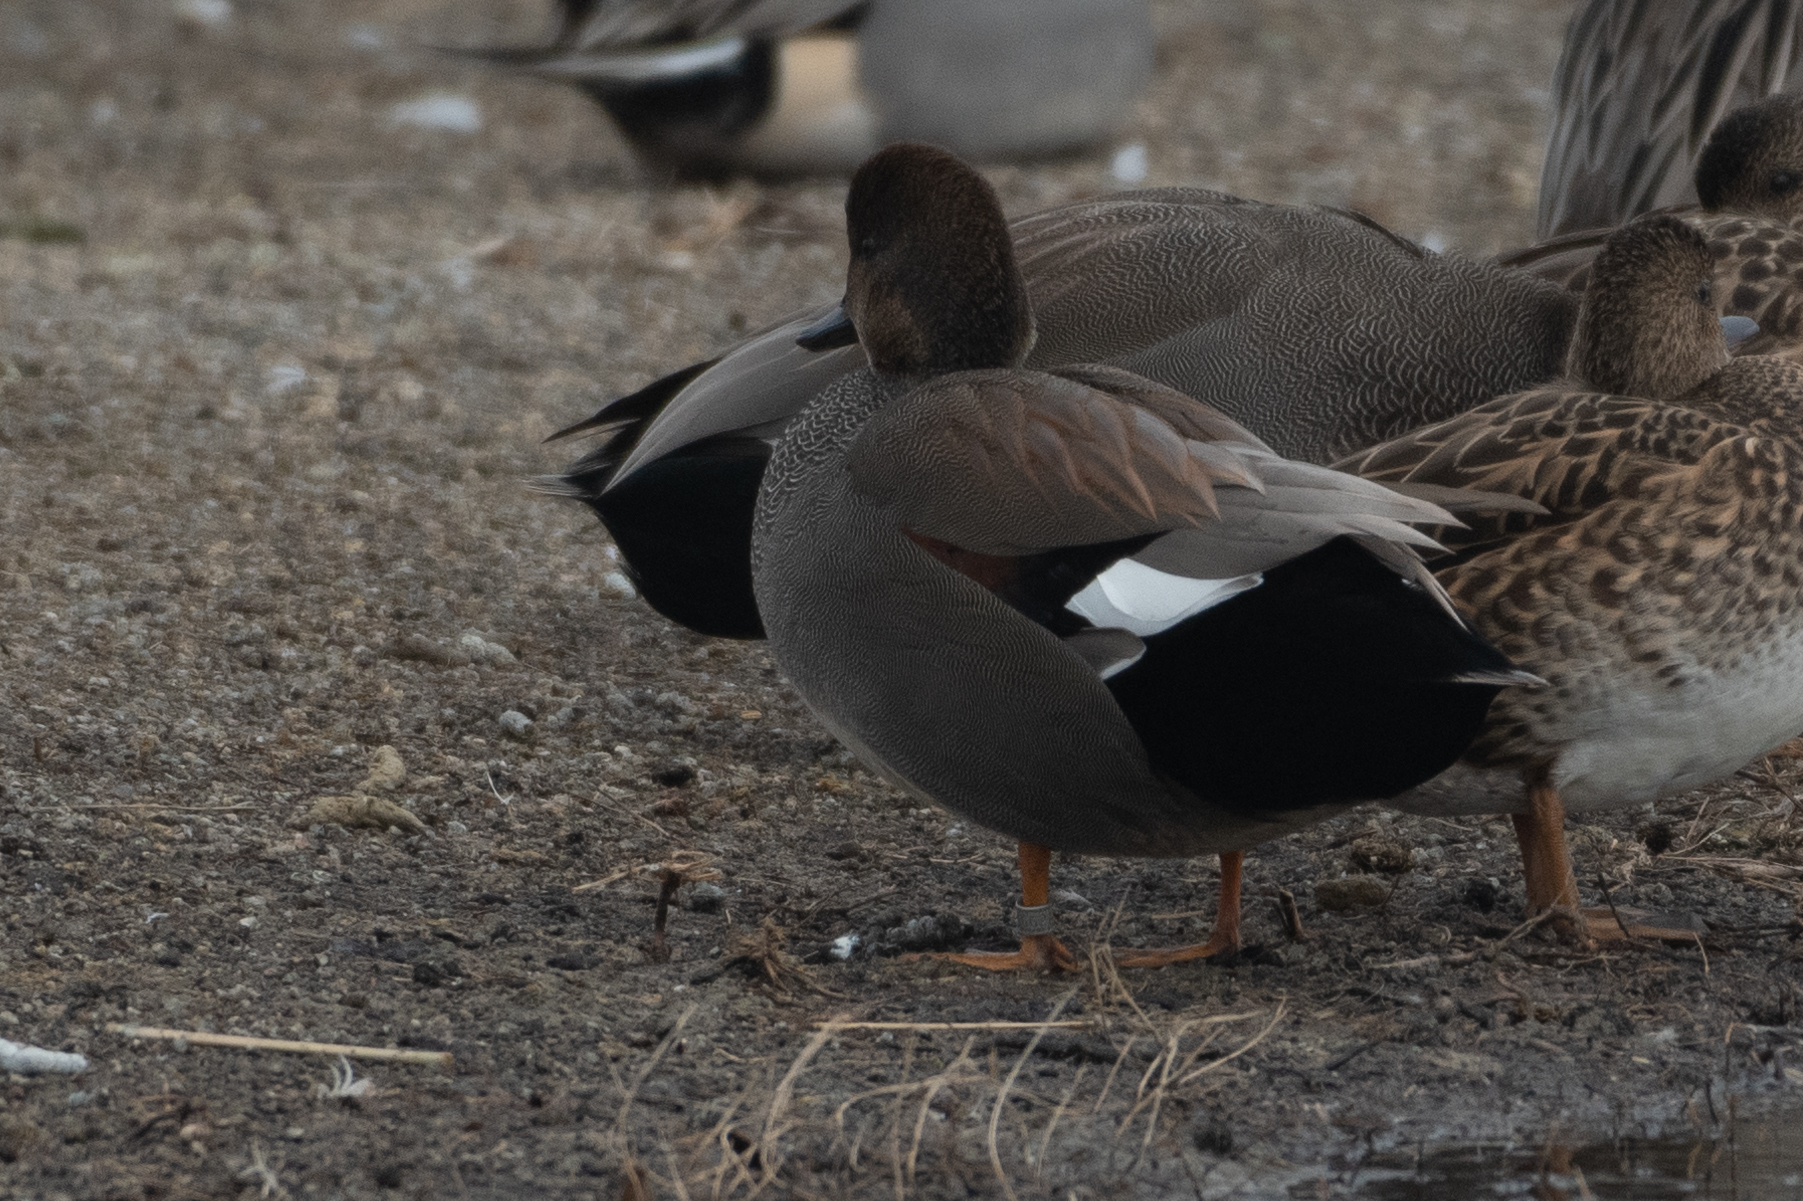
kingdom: Animalia
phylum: Chordata
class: Aves
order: Anseriformes
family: Anatidae
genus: Mareca
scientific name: Mareca strepera
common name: Gadwall
